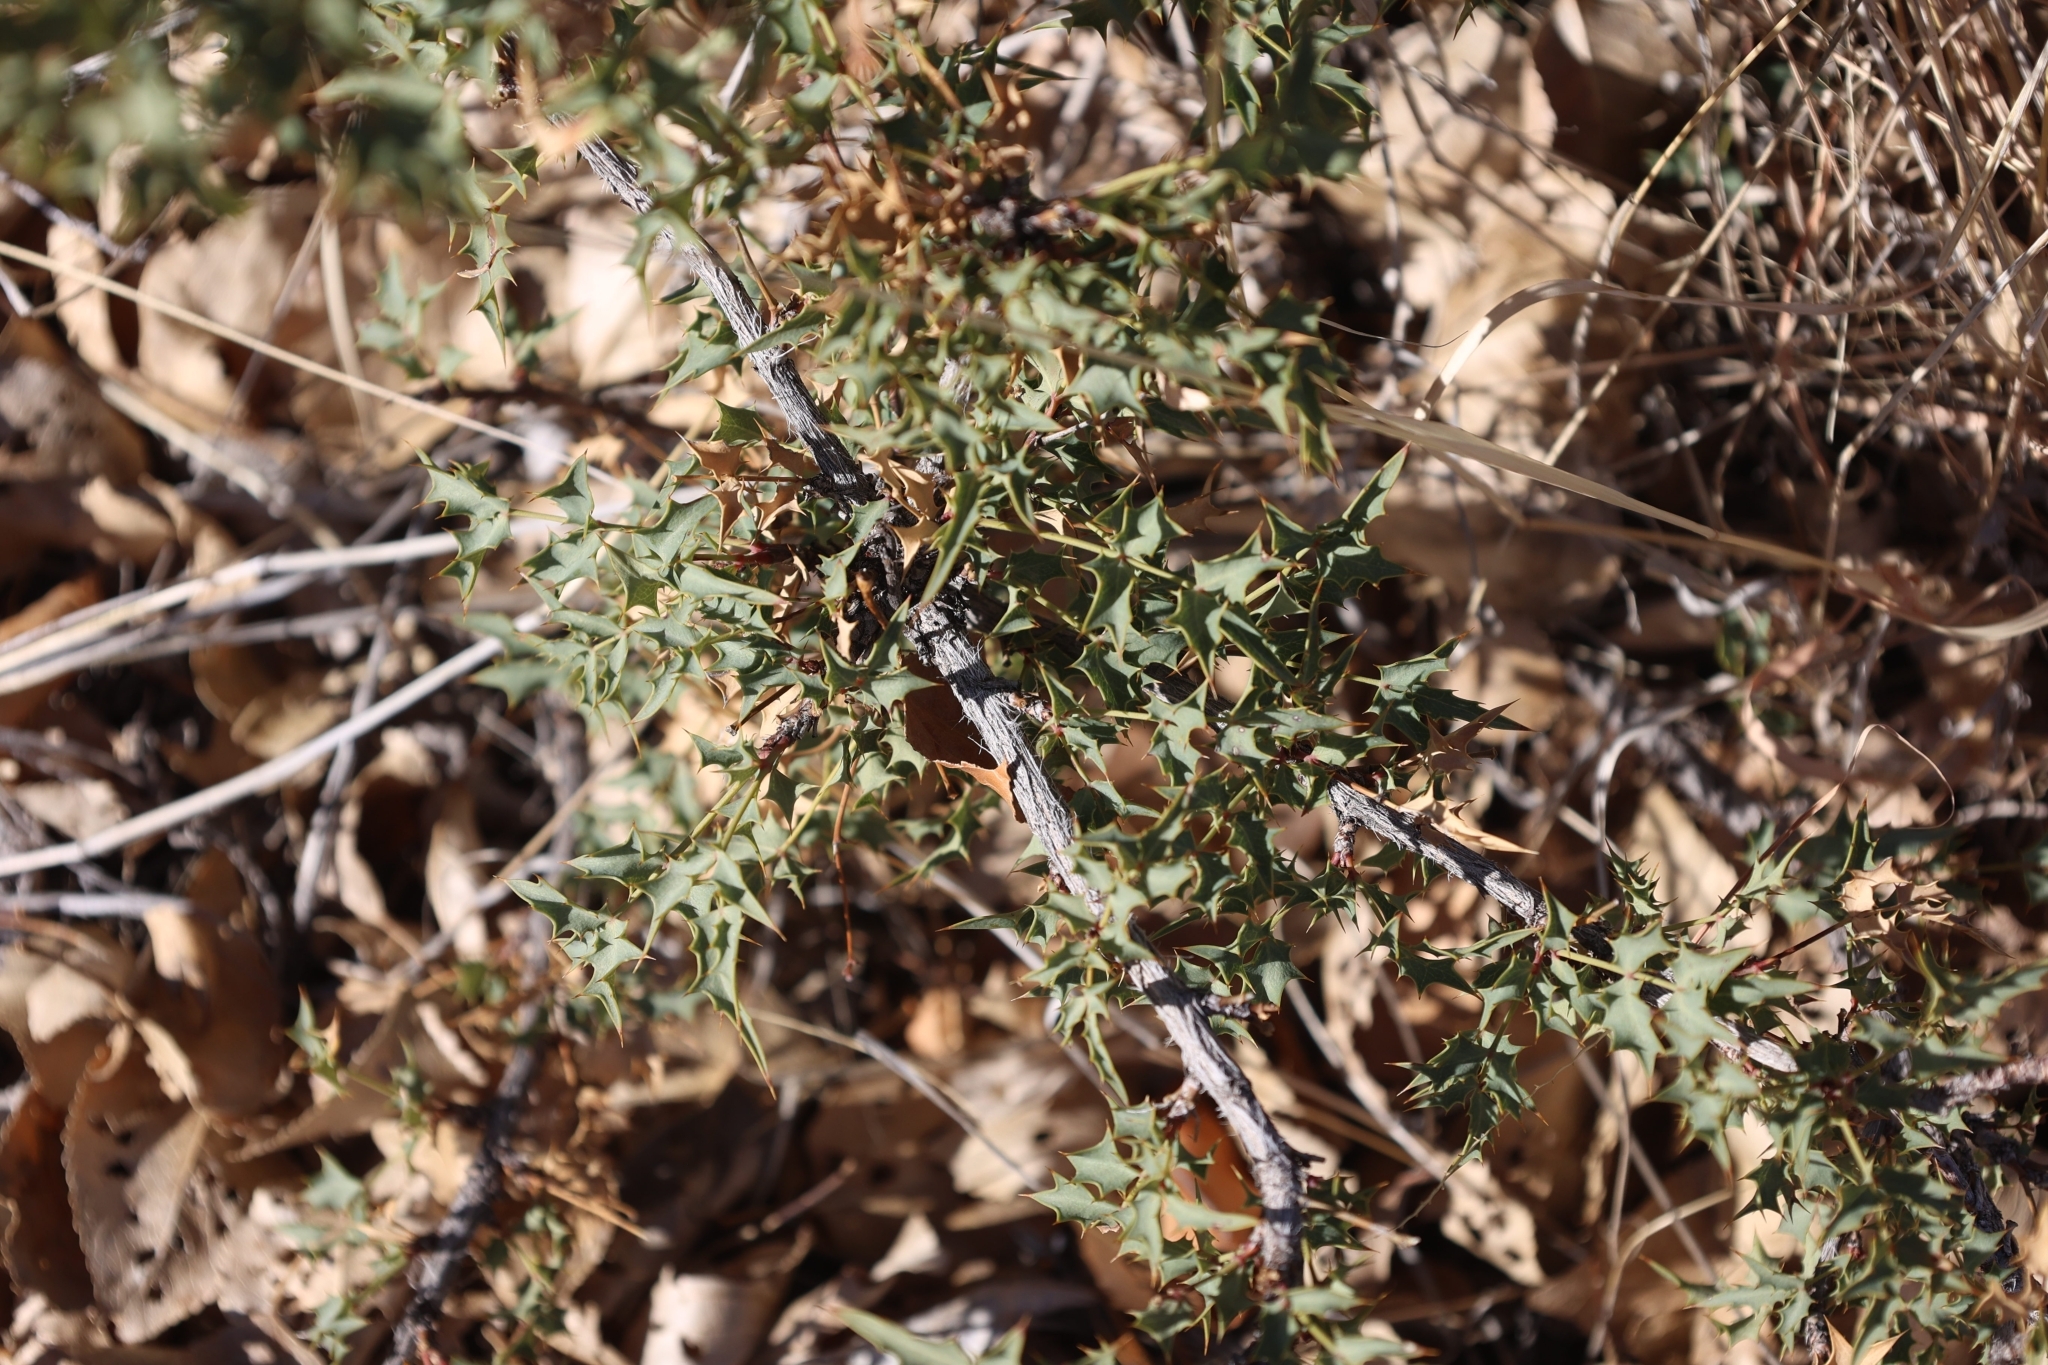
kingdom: Plantae
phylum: Tracheophyta
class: Magnoliopsida
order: Ranunculales
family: Berberidaceae
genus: Alloberberis
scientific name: Alloberberis haematocarpa
